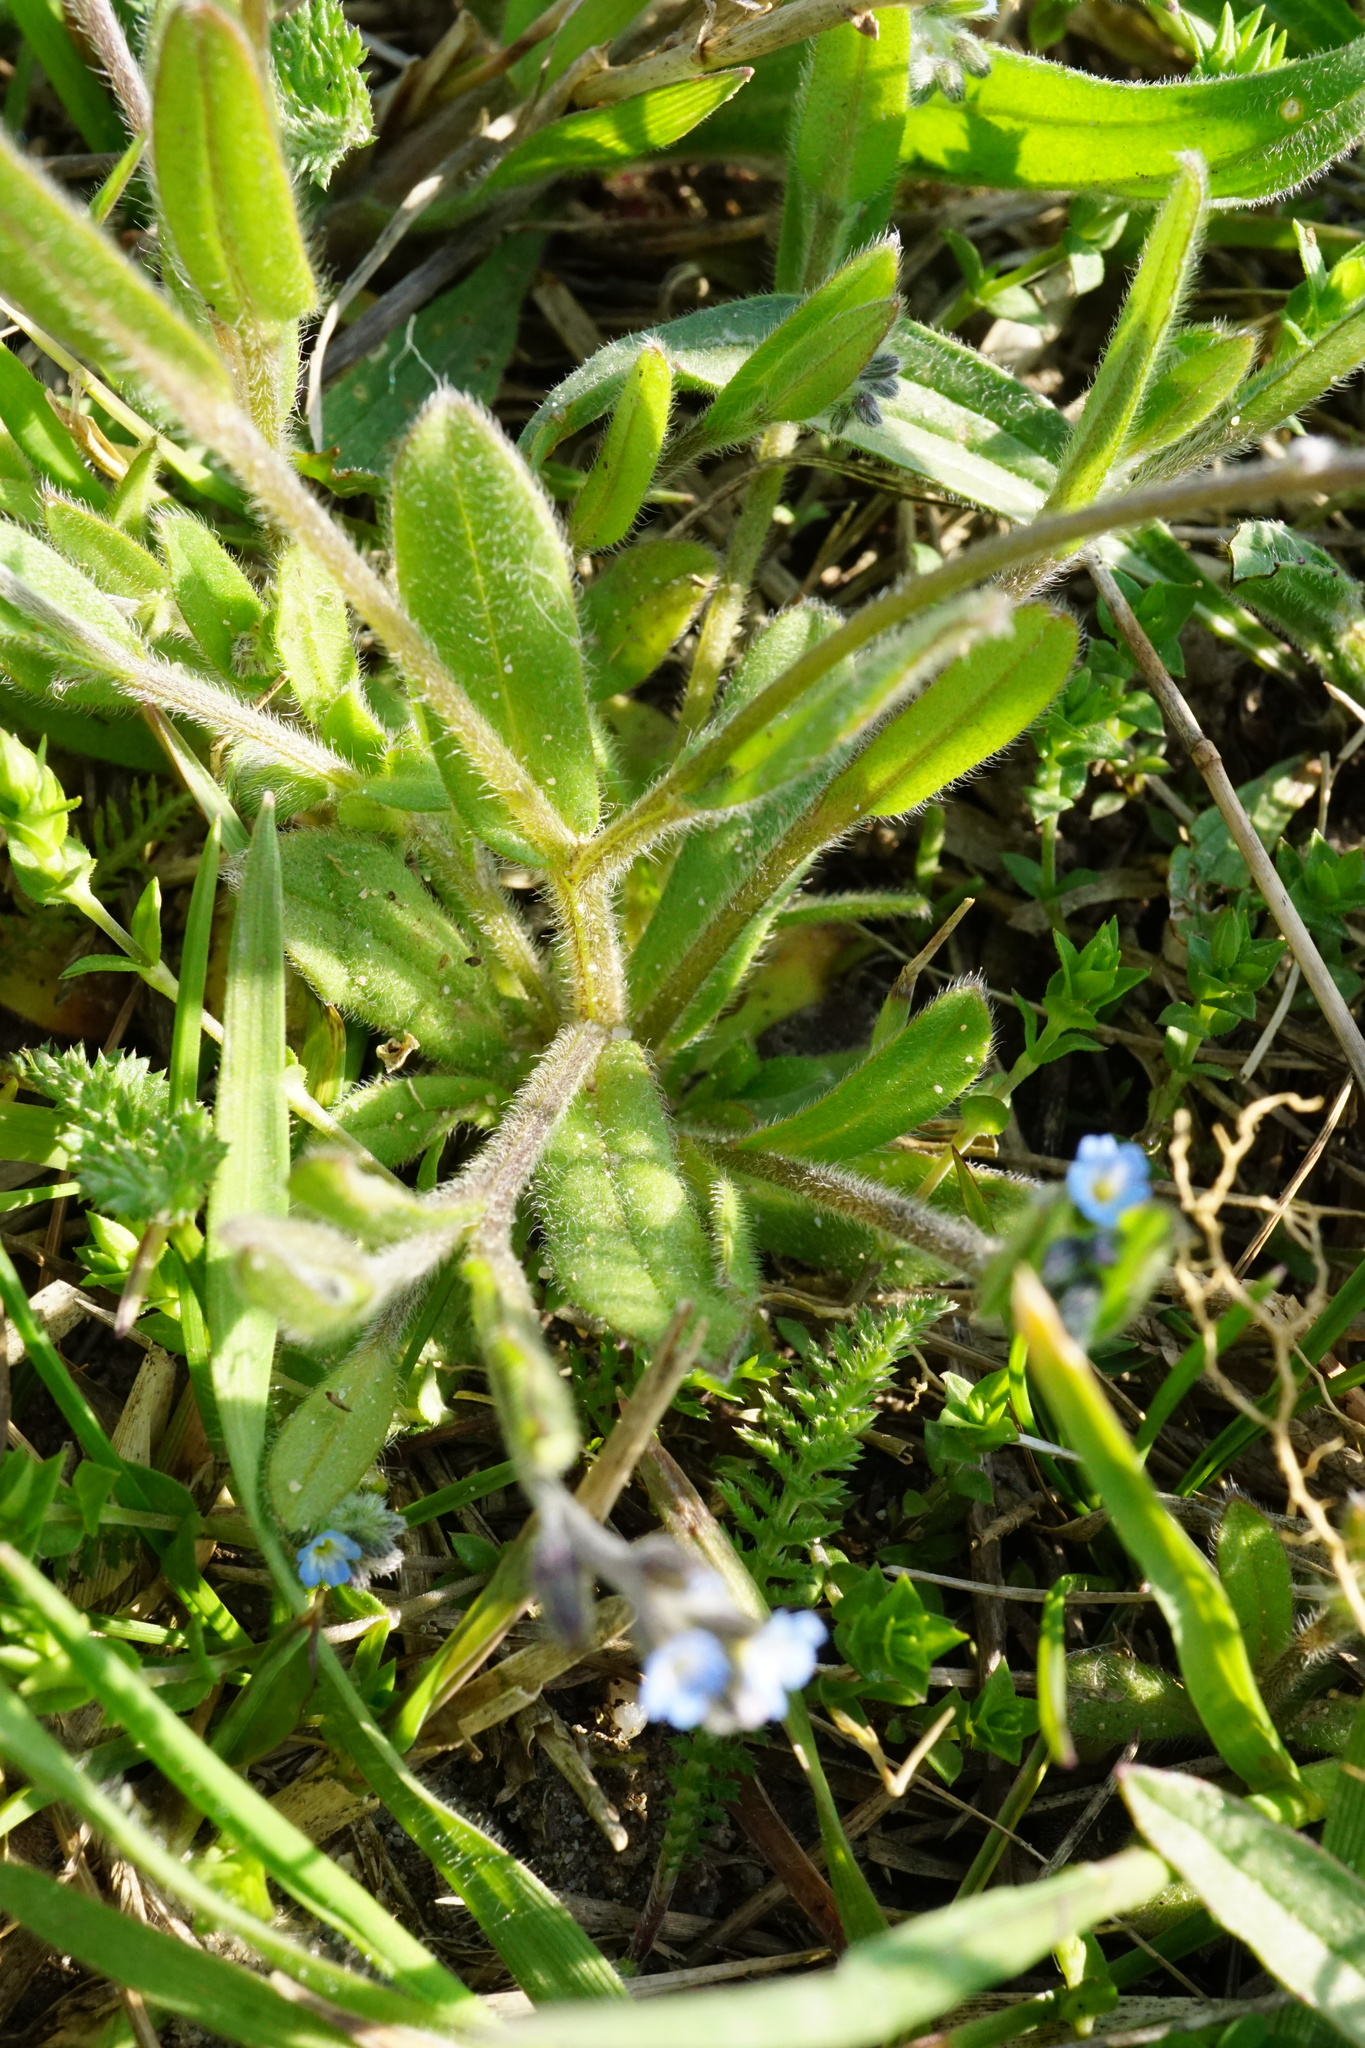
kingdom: Plantae
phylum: Tracheophyta
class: Magnoliopsida
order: Boraginales
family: Boraginaceae
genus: Myosotis
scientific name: Myosotis ramosissima
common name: Early forget-me-not
